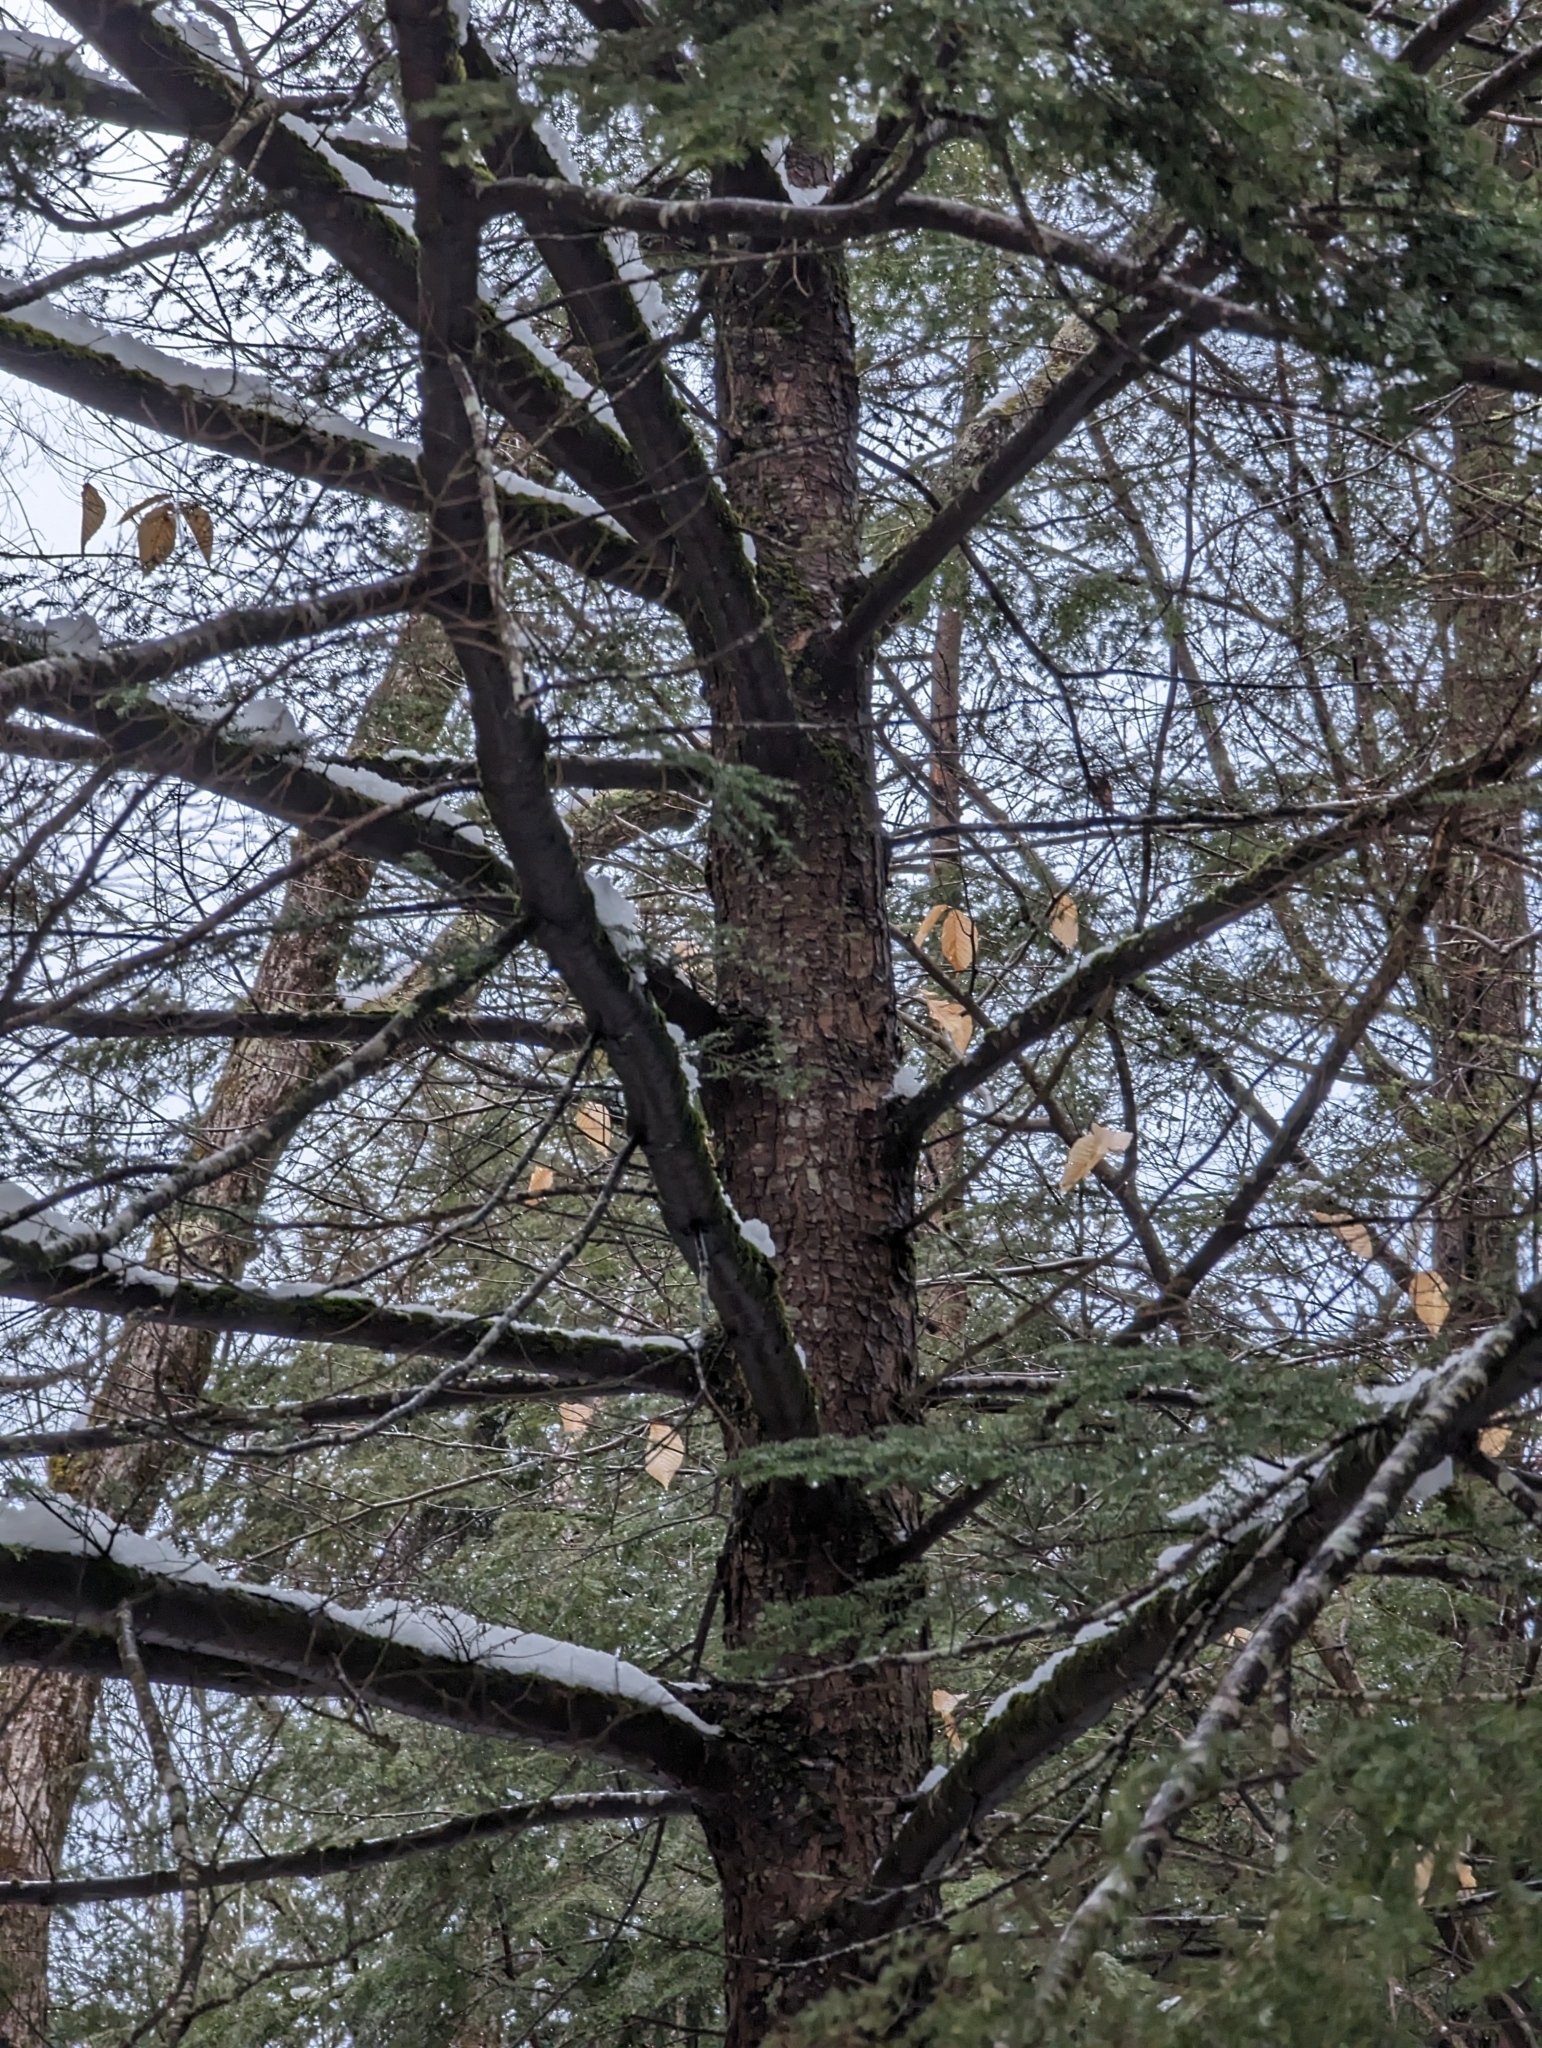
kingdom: Plantae
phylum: Tracheophyta
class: Pinopsida
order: Pinales
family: Pinaceae
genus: Tsuga
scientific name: Tsuga canadensis
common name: Eastern hemlock
